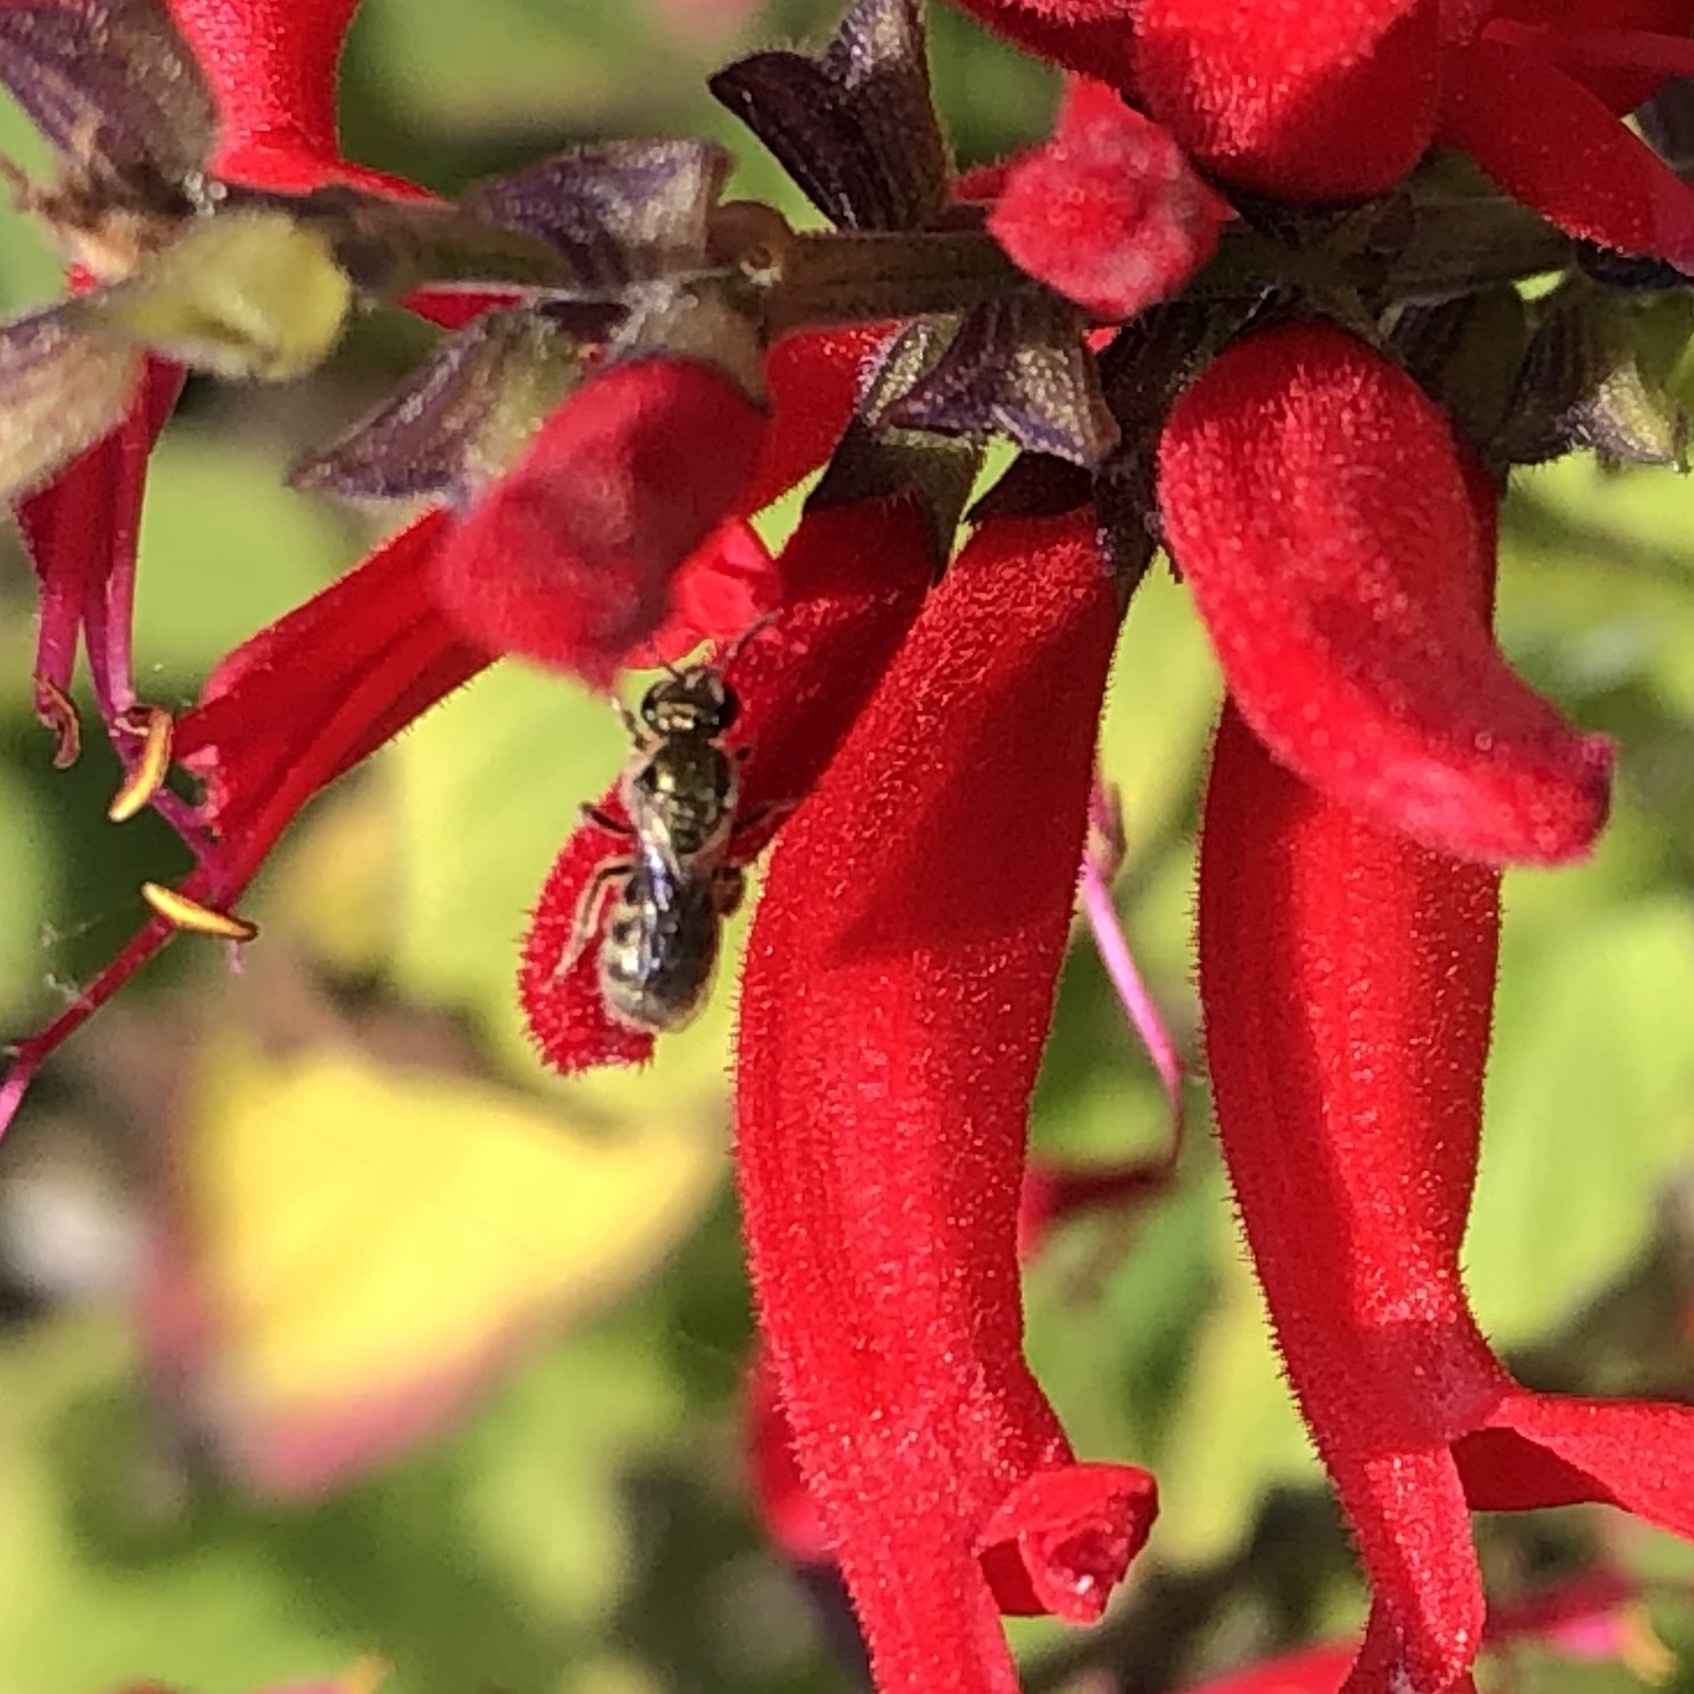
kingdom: Animalia
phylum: Arthropoda
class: Insecta
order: Hymenoptera
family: Halictidae
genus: Dialictus
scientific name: Dialictus
